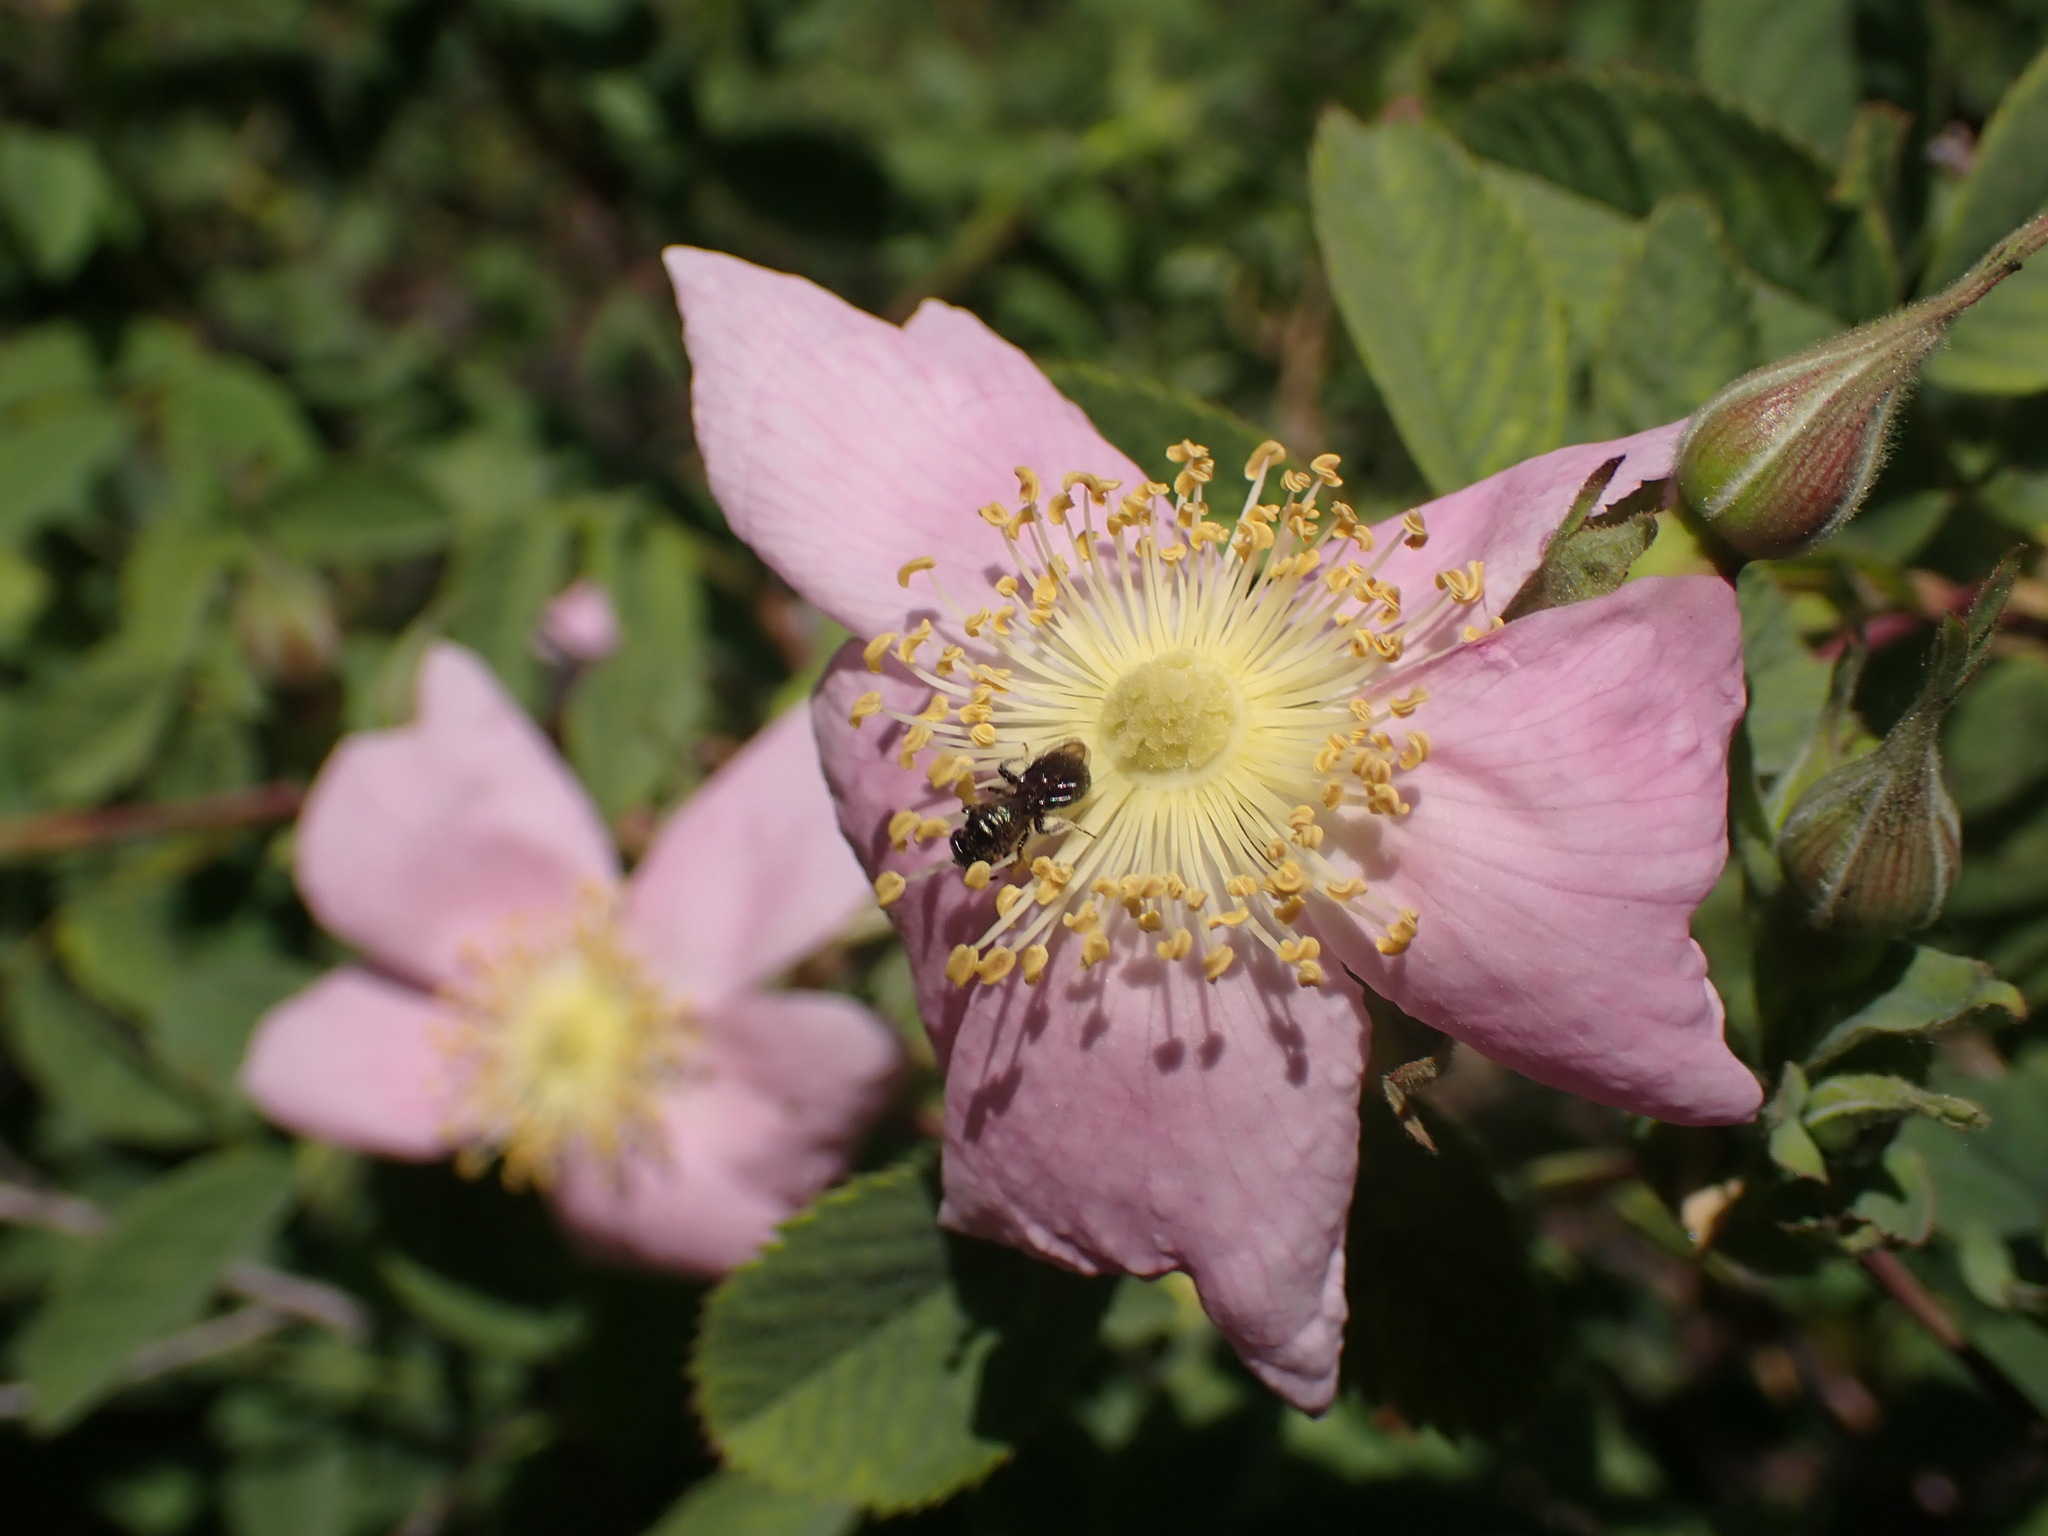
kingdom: Plantae
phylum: Tracheophyta
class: Magnoliopsida
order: Rosales
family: Rosaceae
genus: Rosa
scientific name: Rosa californica
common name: California rose
